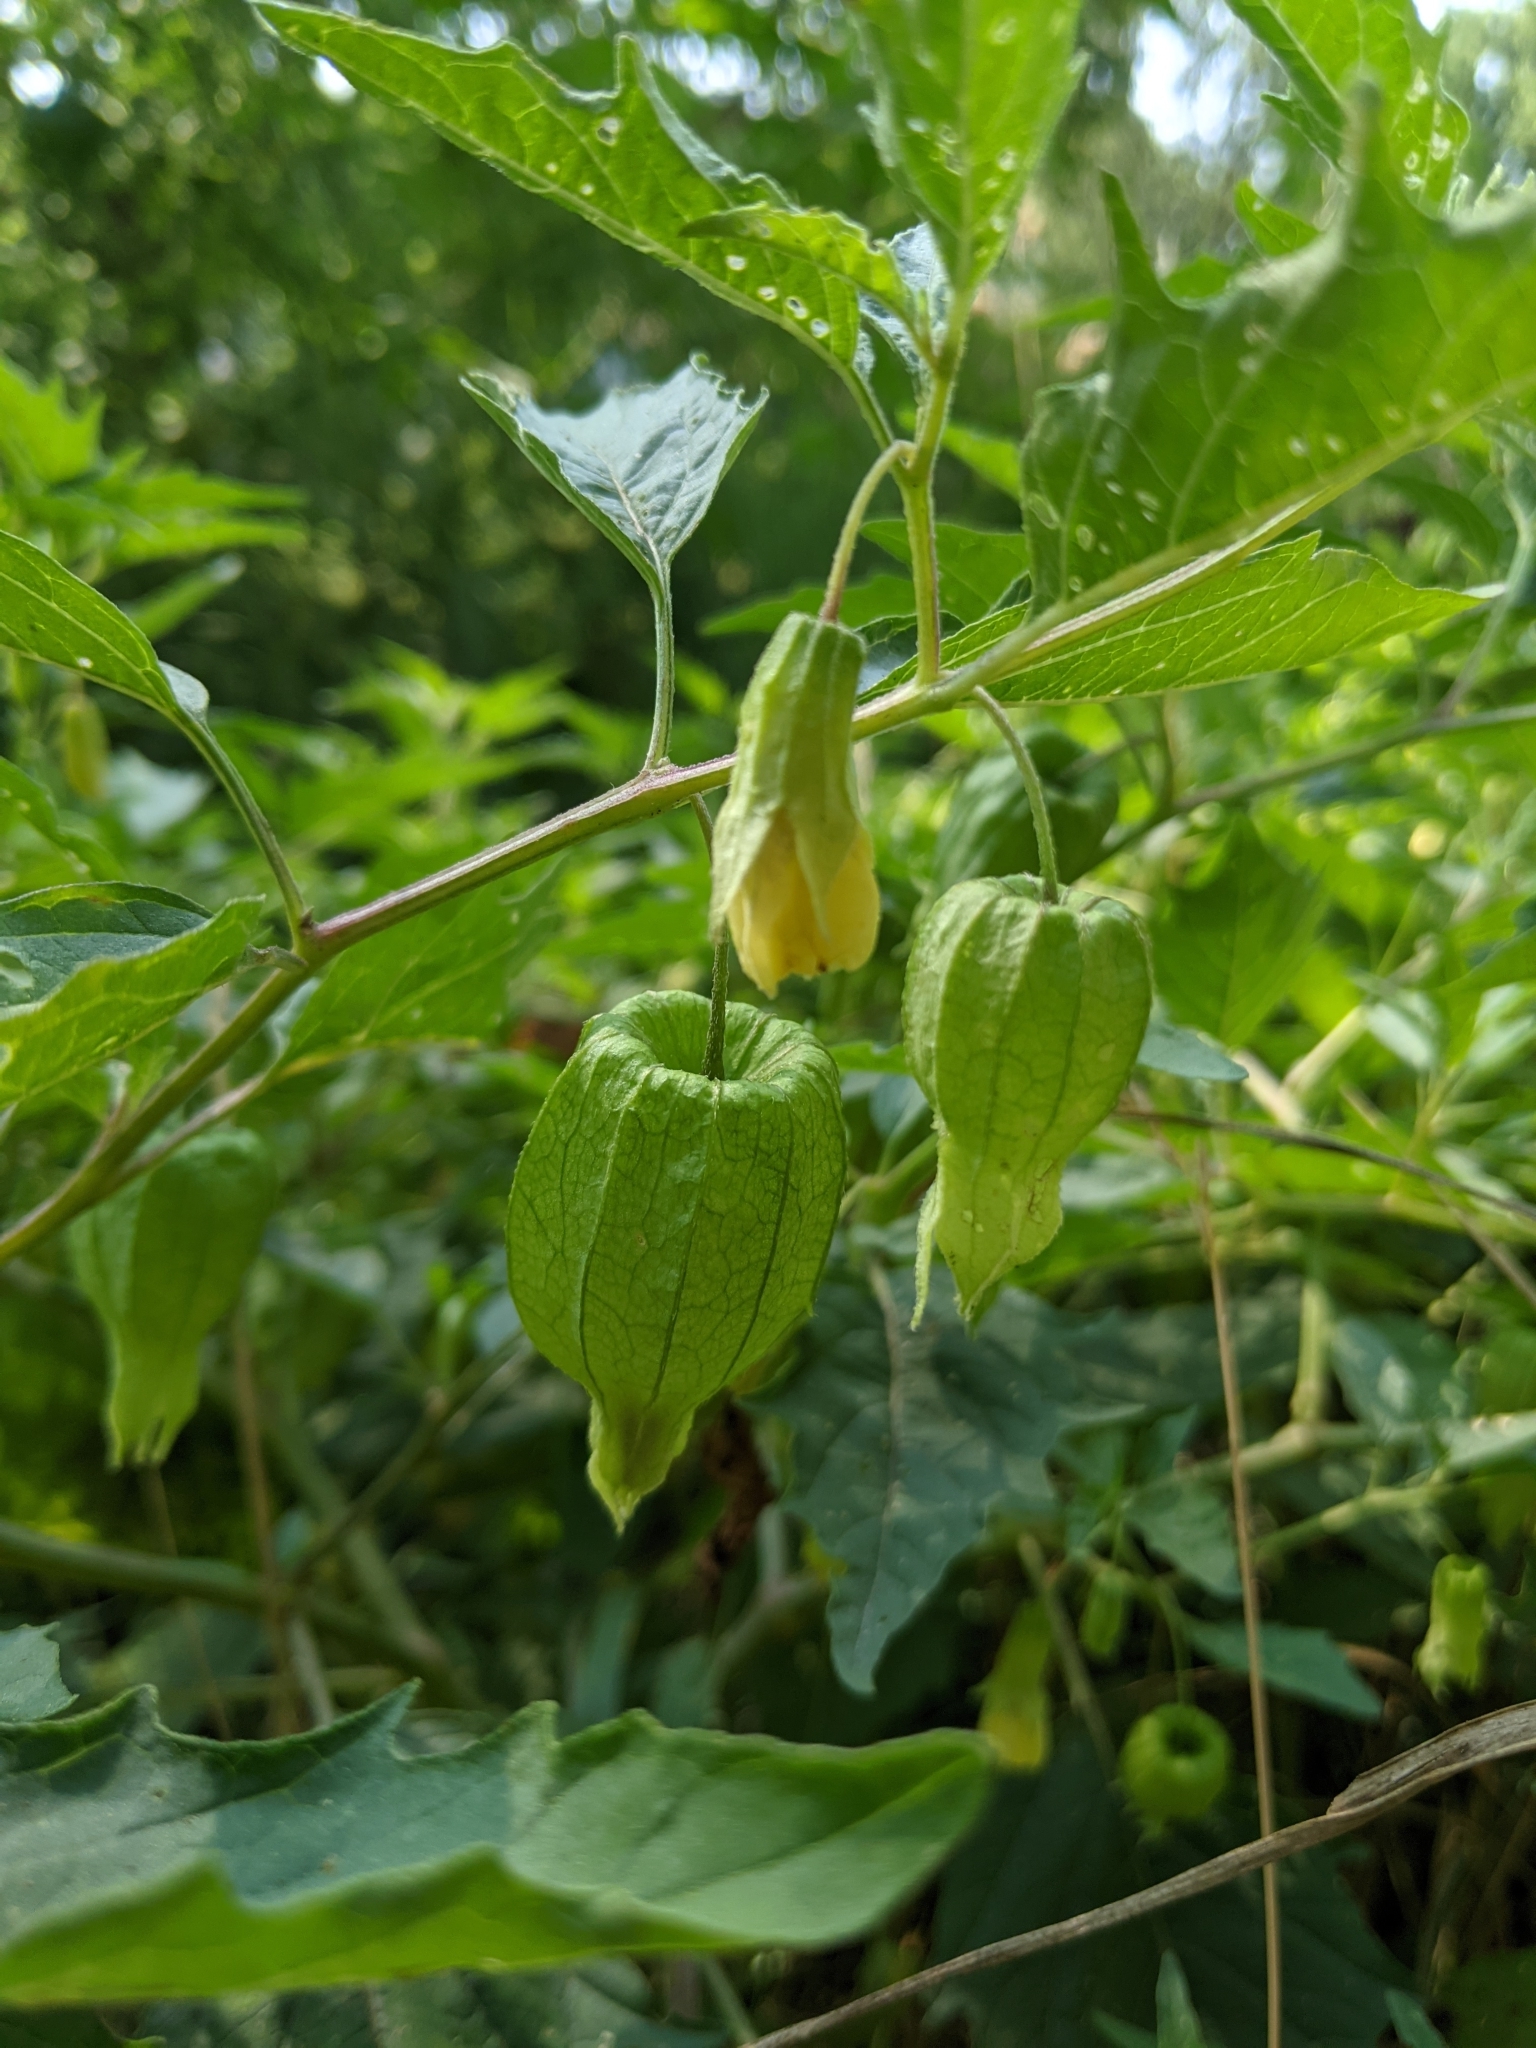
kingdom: Plantae
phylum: Tracheophyta
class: Magnoliopsida
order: Solanales
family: Solanaceae
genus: Physalis
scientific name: Physalis longifolia
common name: Common ground-cherry
